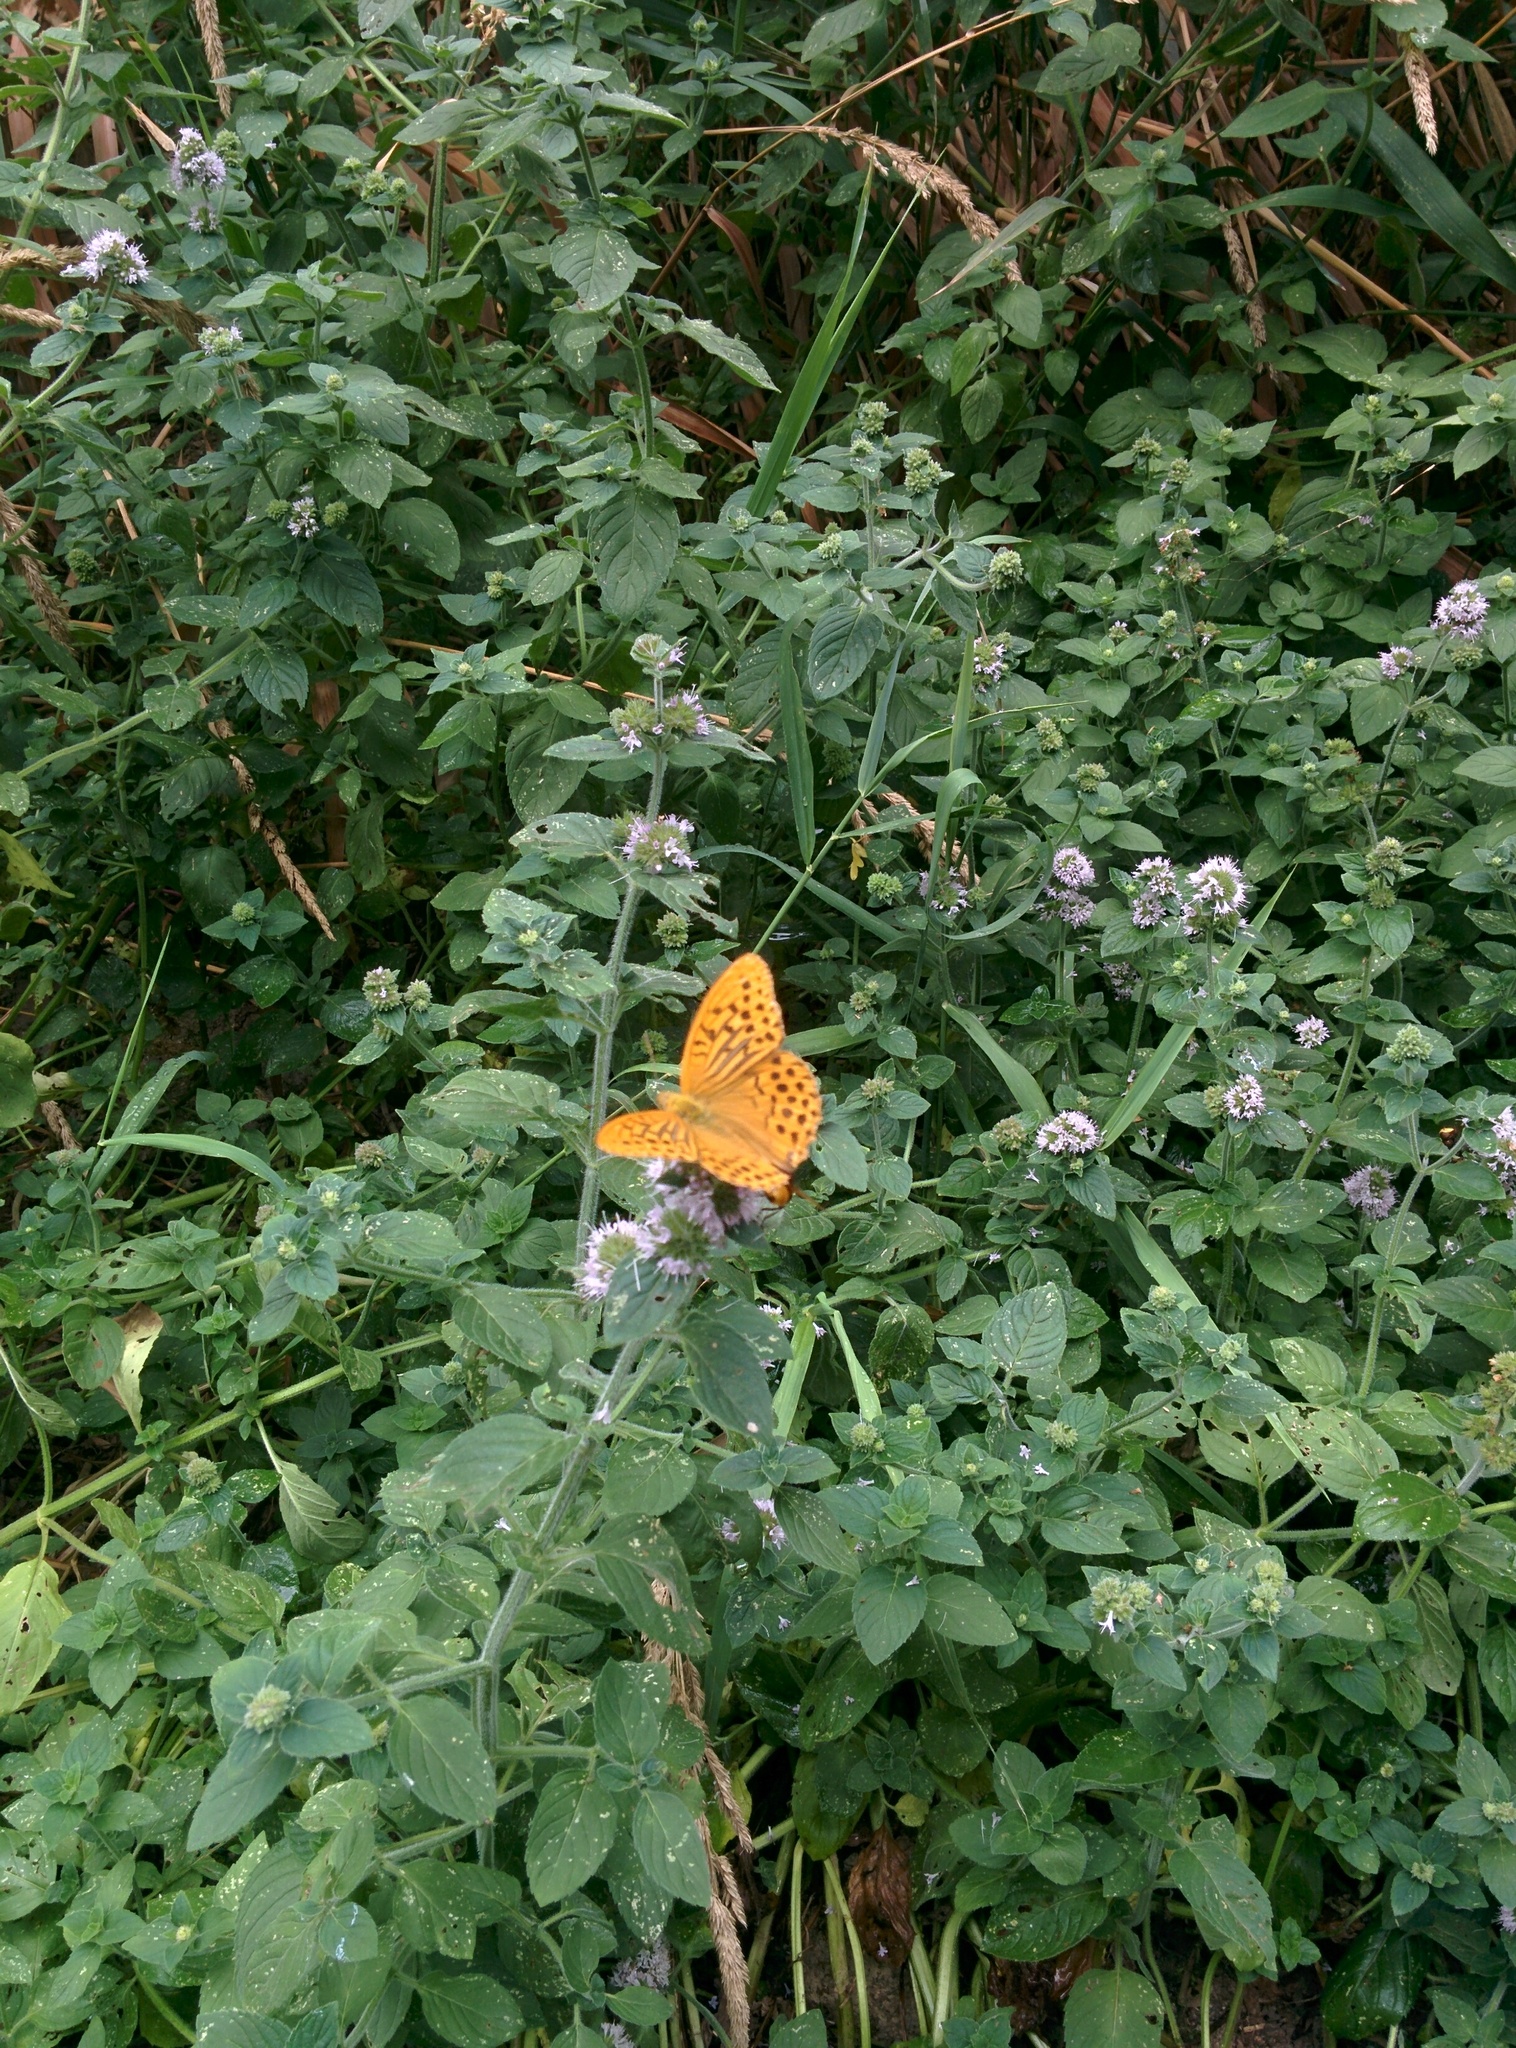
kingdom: Animalia
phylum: Arthropoda
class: Insecta
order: Lepidoptera
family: Nymphalidae
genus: Argynnis
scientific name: Argynnis paphia
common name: Silver-washed fritillary
